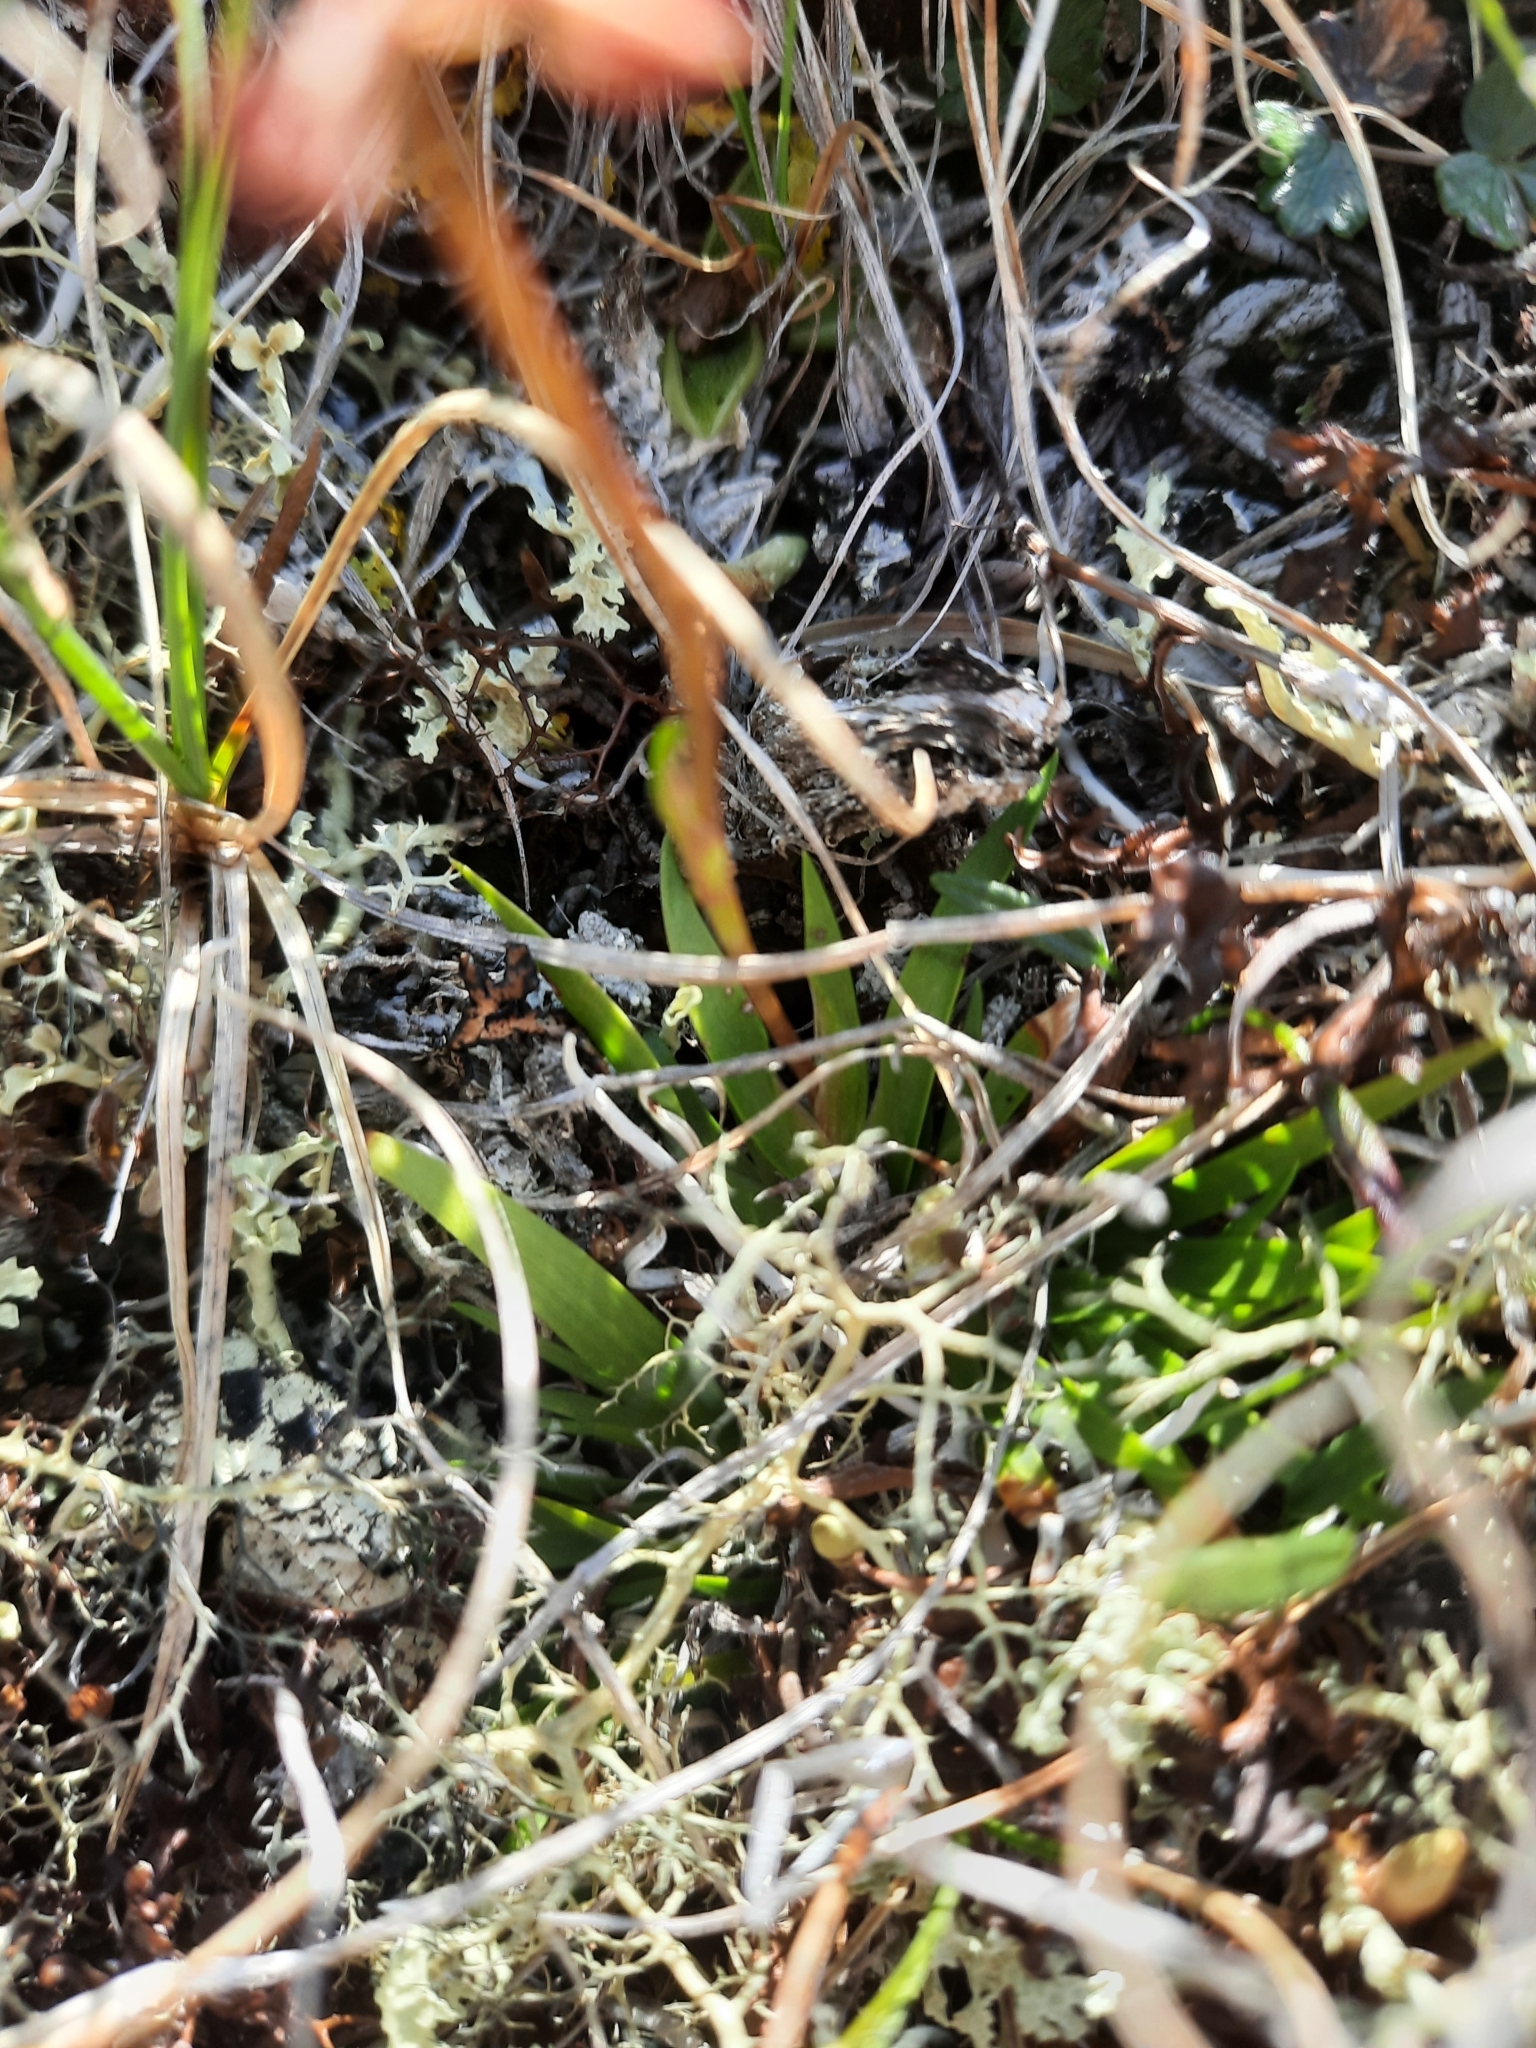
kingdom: Plantae
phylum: Tracheophyta
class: Liliopsida
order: Alismatales
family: Tofieldiaceae
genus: Tofieldia
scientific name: Tofieldia coccinea
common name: Northern false asphodel
